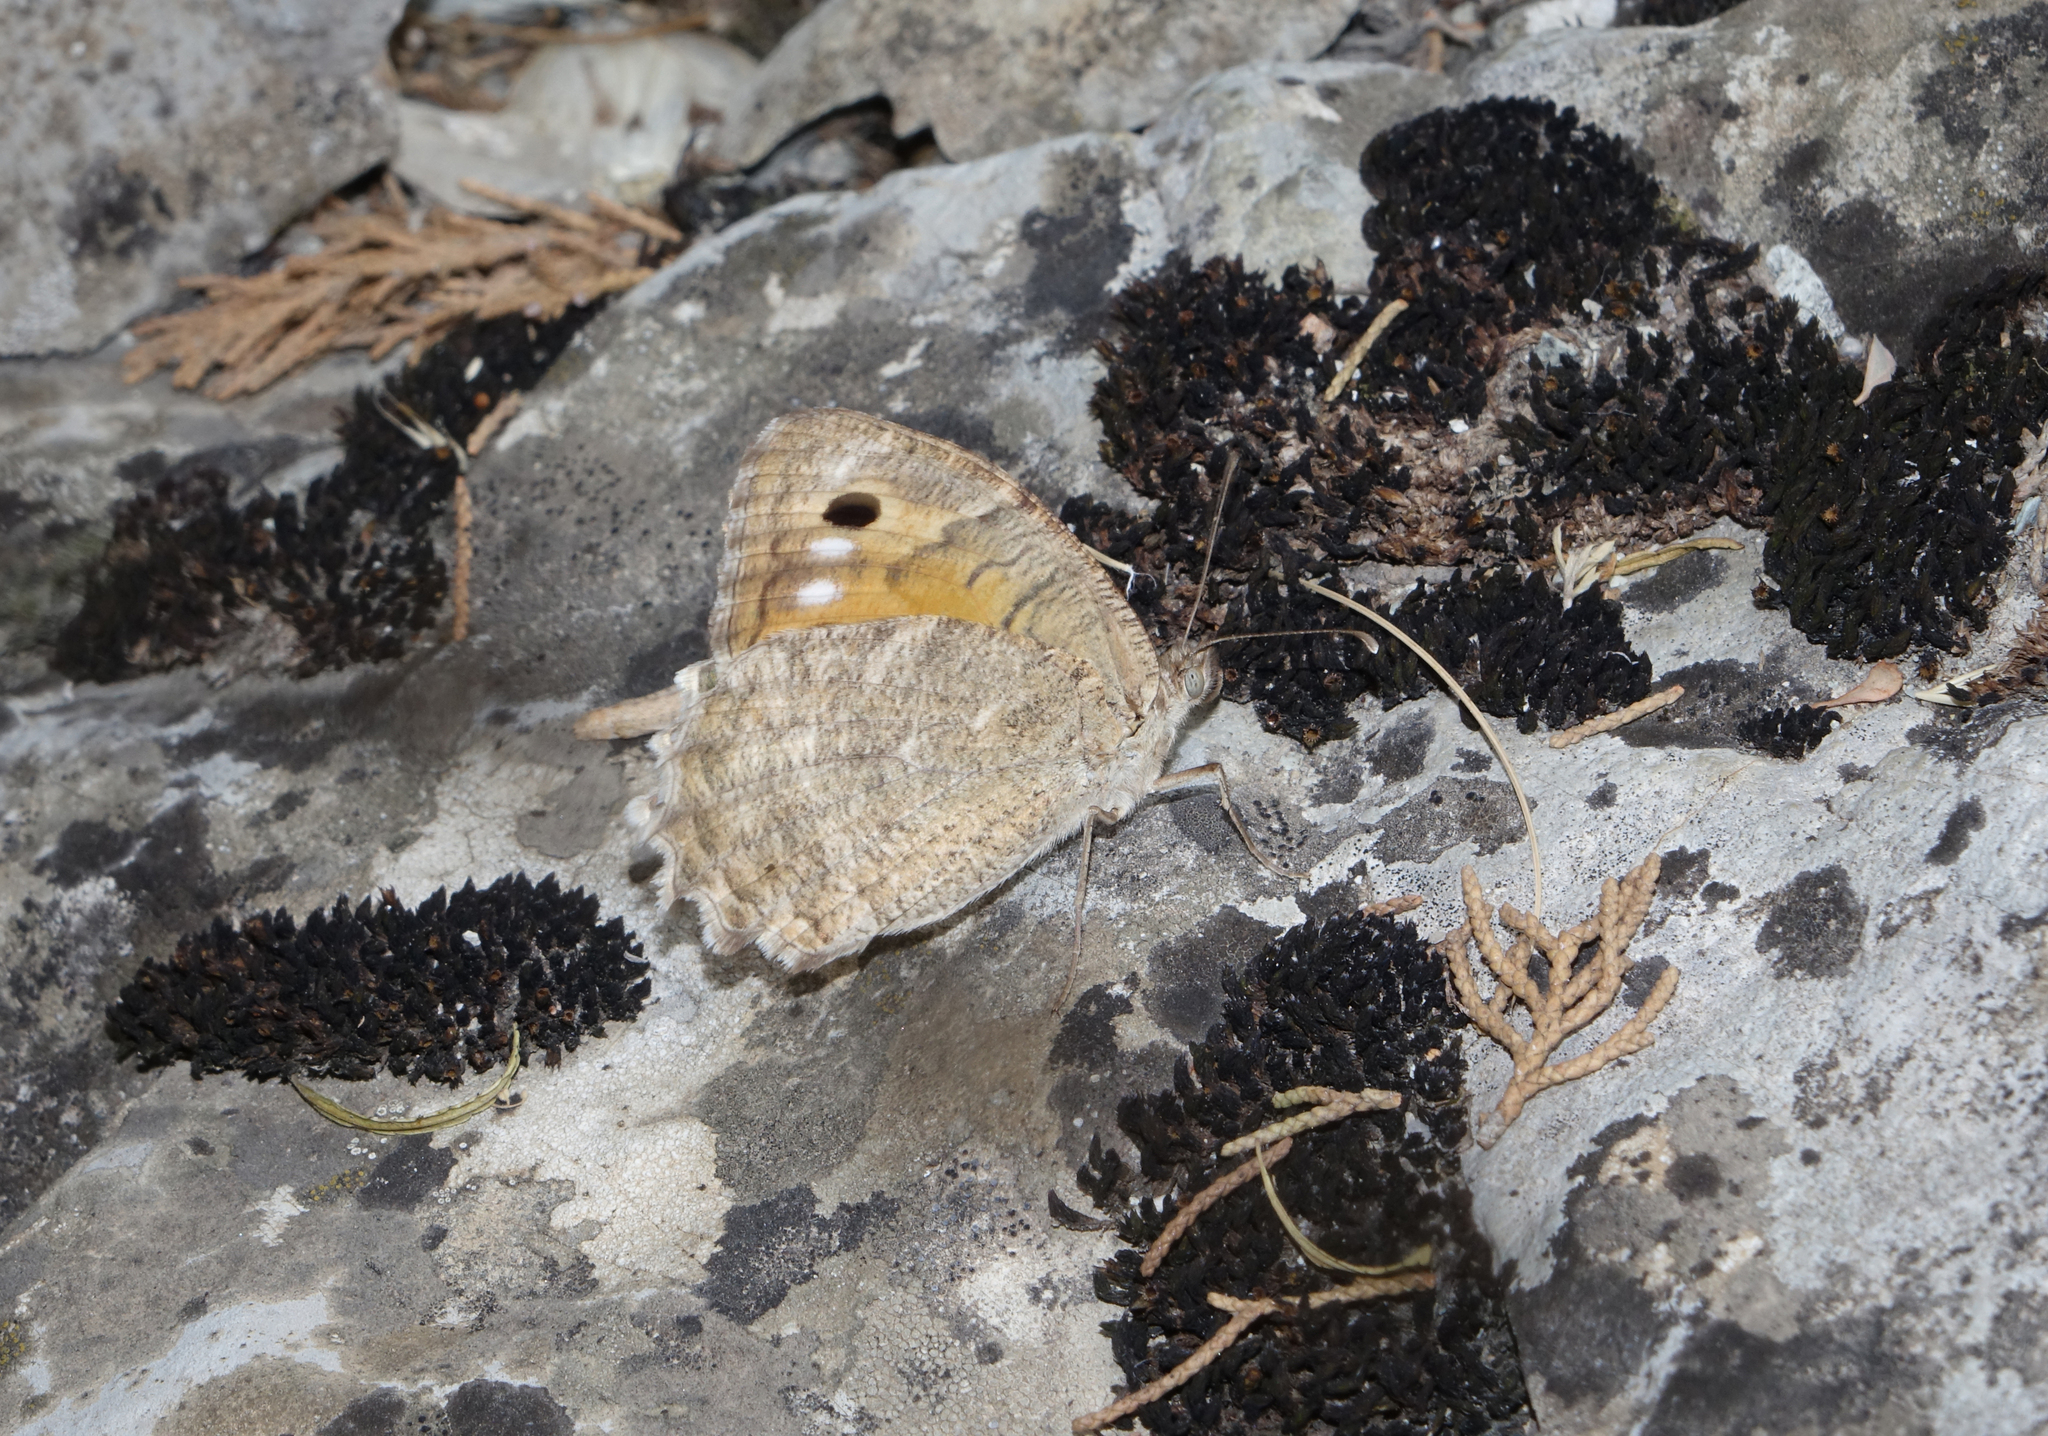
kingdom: Animalia
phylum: Arthropoda
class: Insecta
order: Lepidoptera
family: Nymphalidae
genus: Pseudochazara
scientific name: Pseudochazara pelopea
